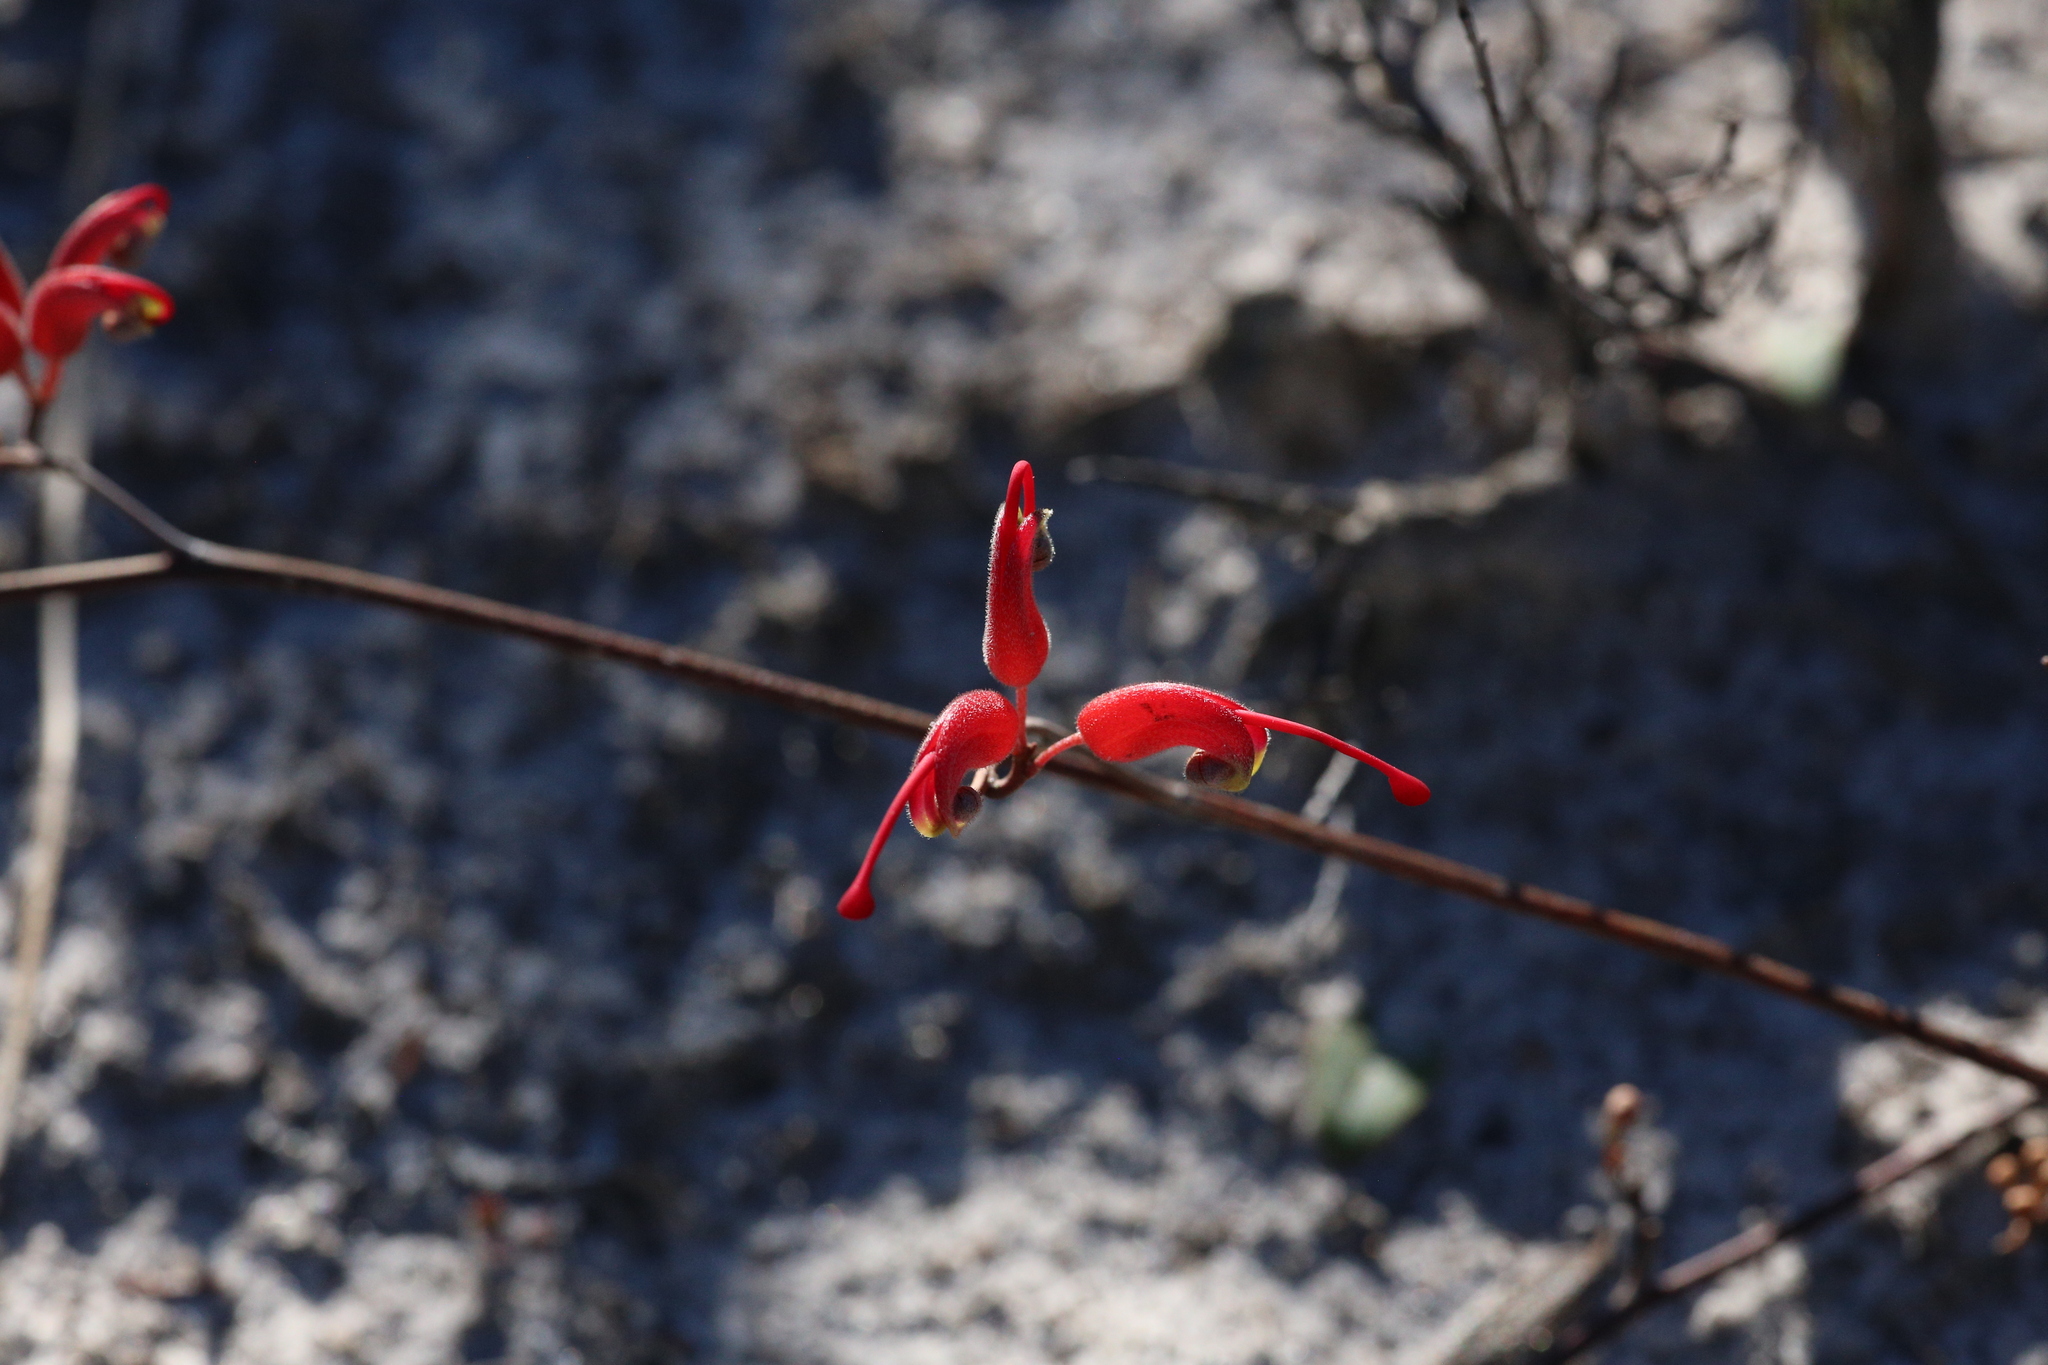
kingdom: Plantae
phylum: Tracheophyta
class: Magnoliopsida
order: Proteales
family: Proteaceae
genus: Grevillea
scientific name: Grevillea nudiflora
